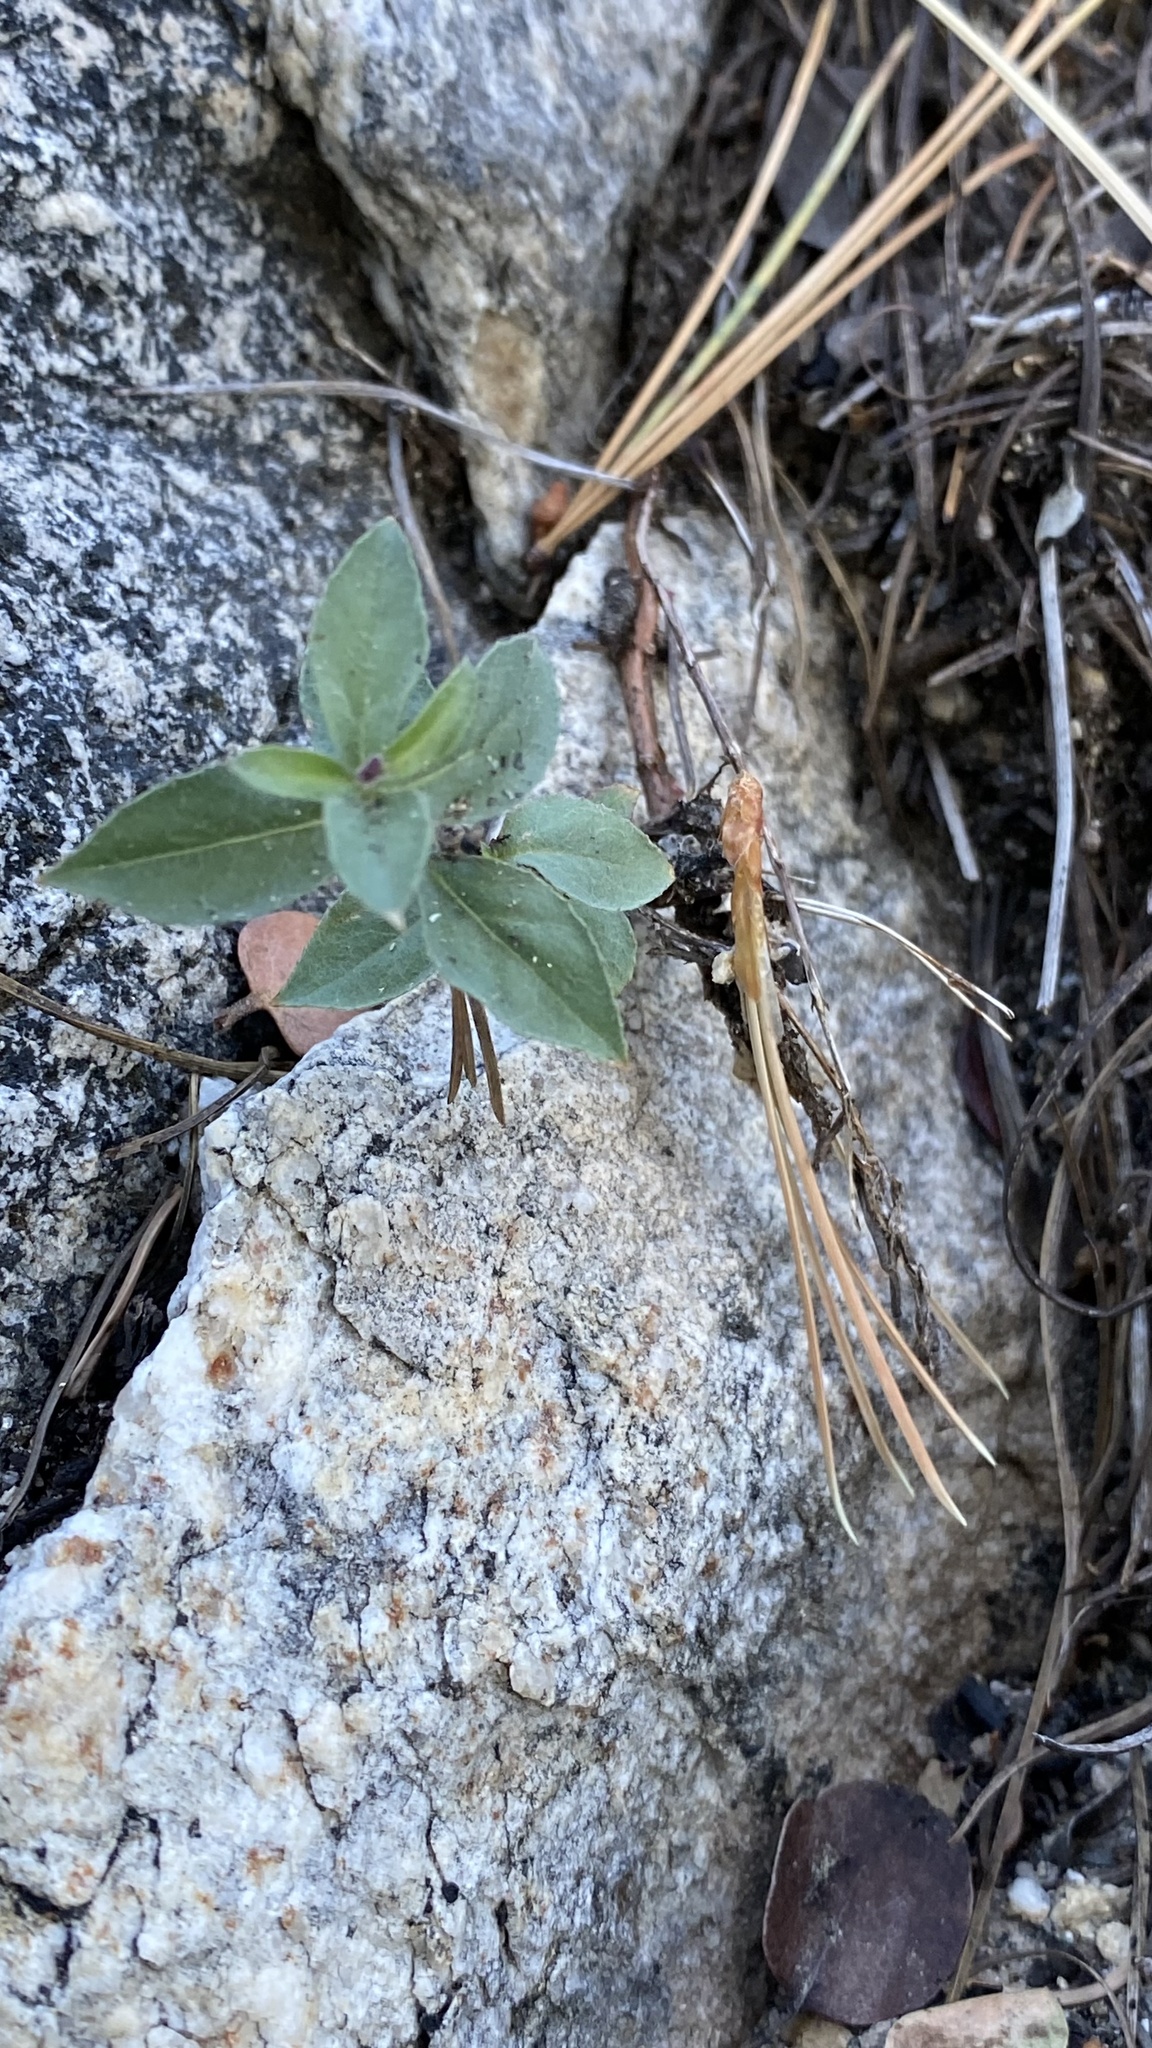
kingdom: Plantae
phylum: Tracheophyta
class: Magnoliopsida
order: Myrtales
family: Onagraceae
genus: Epilobium
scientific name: Epilobium canum
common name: California-fuchsia
